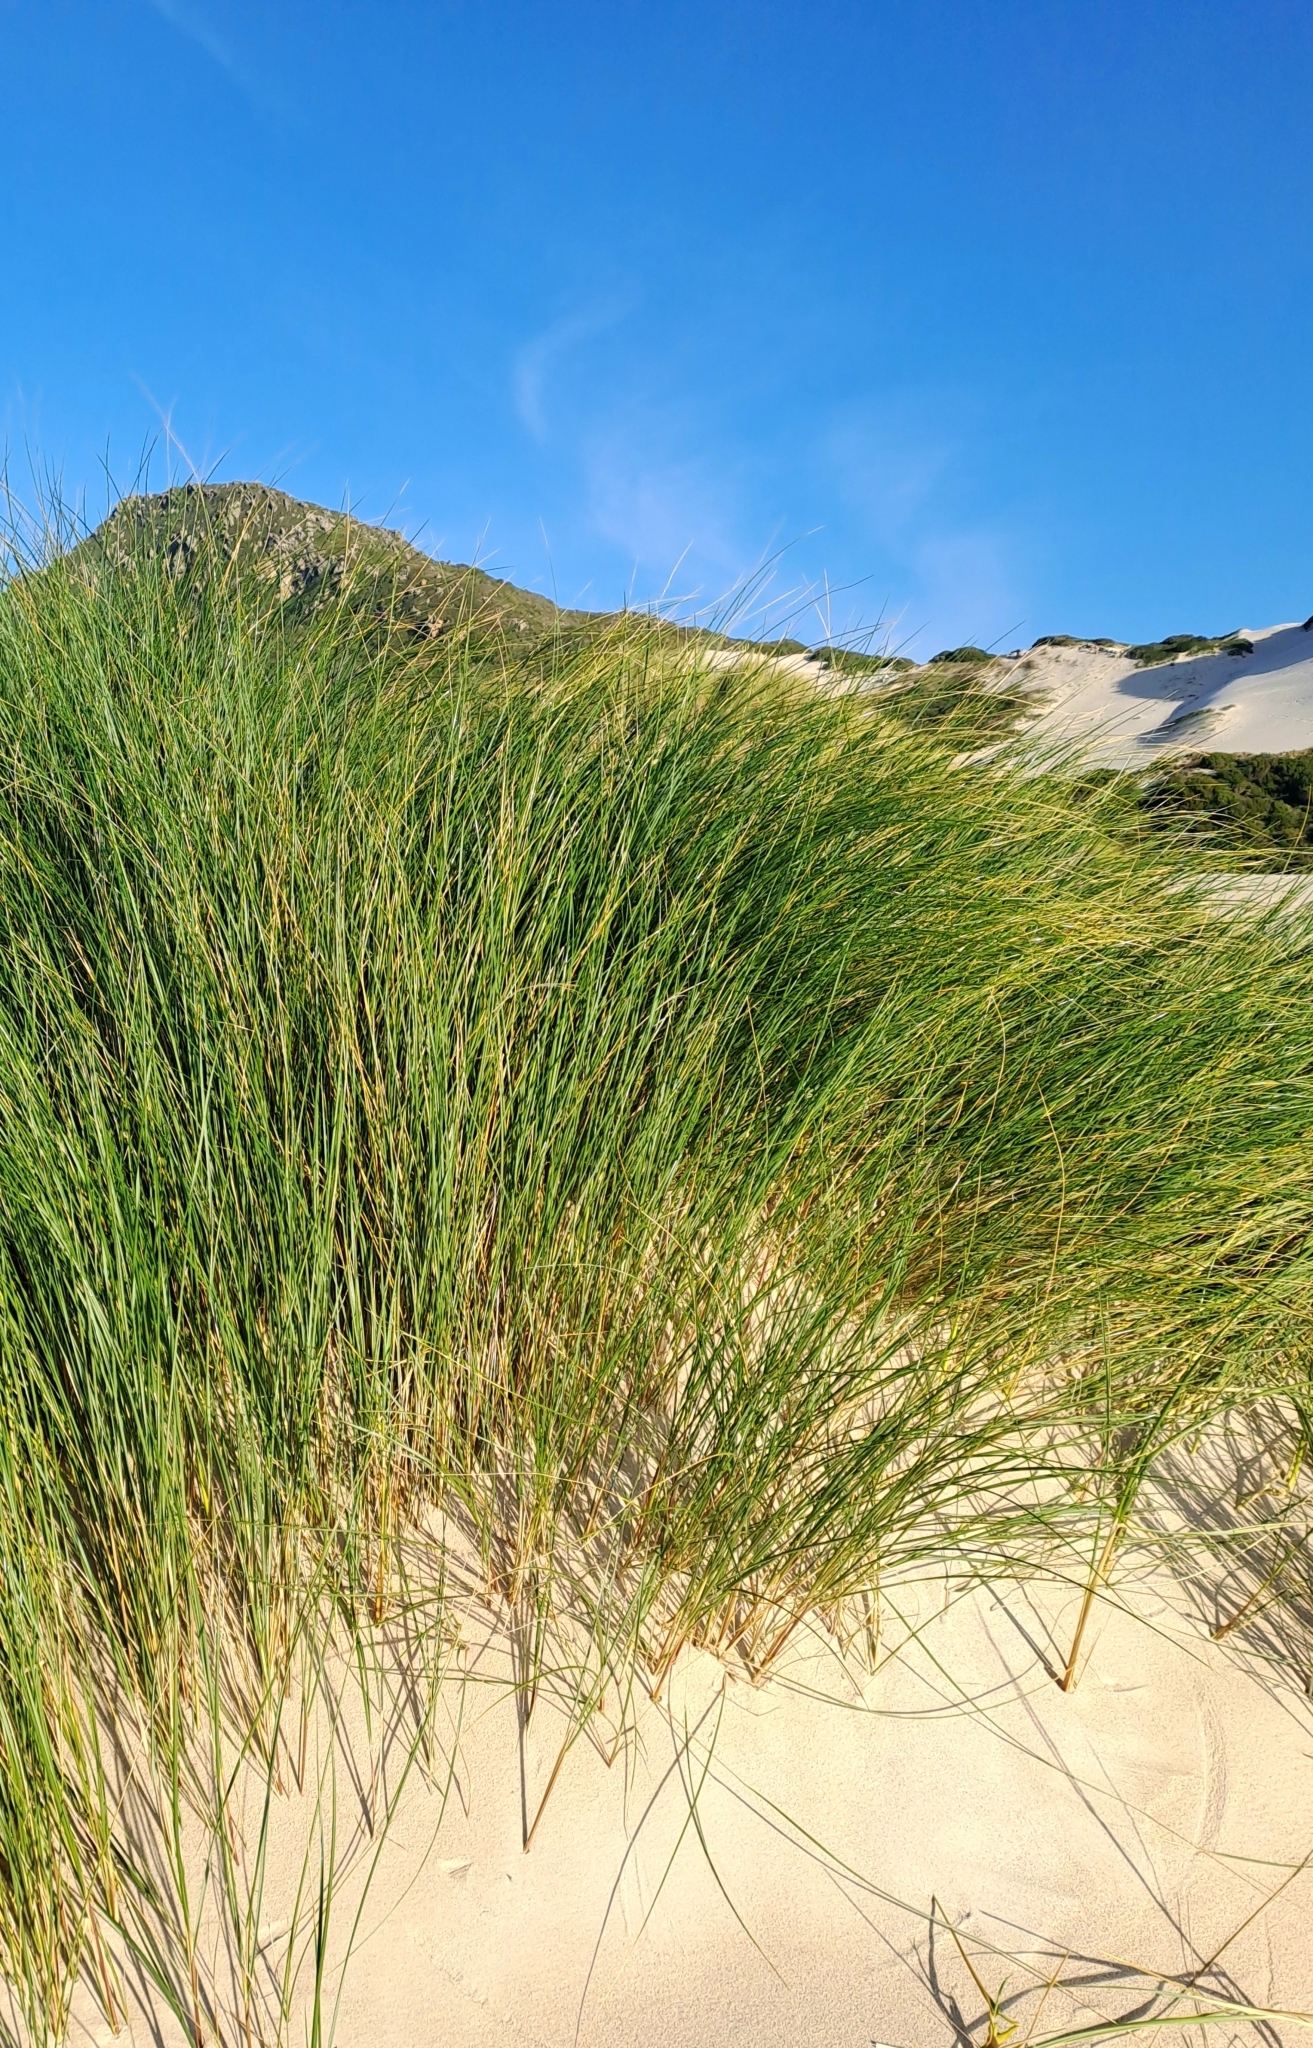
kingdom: Plantae
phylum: Tracheophyta
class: Liliopsida
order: Poales
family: Poaceae
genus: Thinopyrum
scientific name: Thinopyrum distichum
